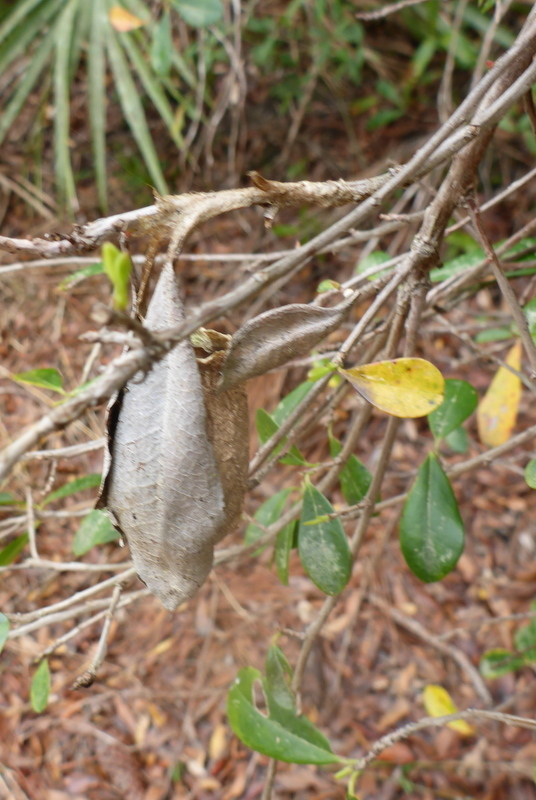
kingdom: Animalia
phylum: Arthropoda
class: Insecta
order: Lepidoptera
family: Saturniidae
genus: Antheraea
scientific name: Antheraea polyphemus
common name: Polyphemus moth
